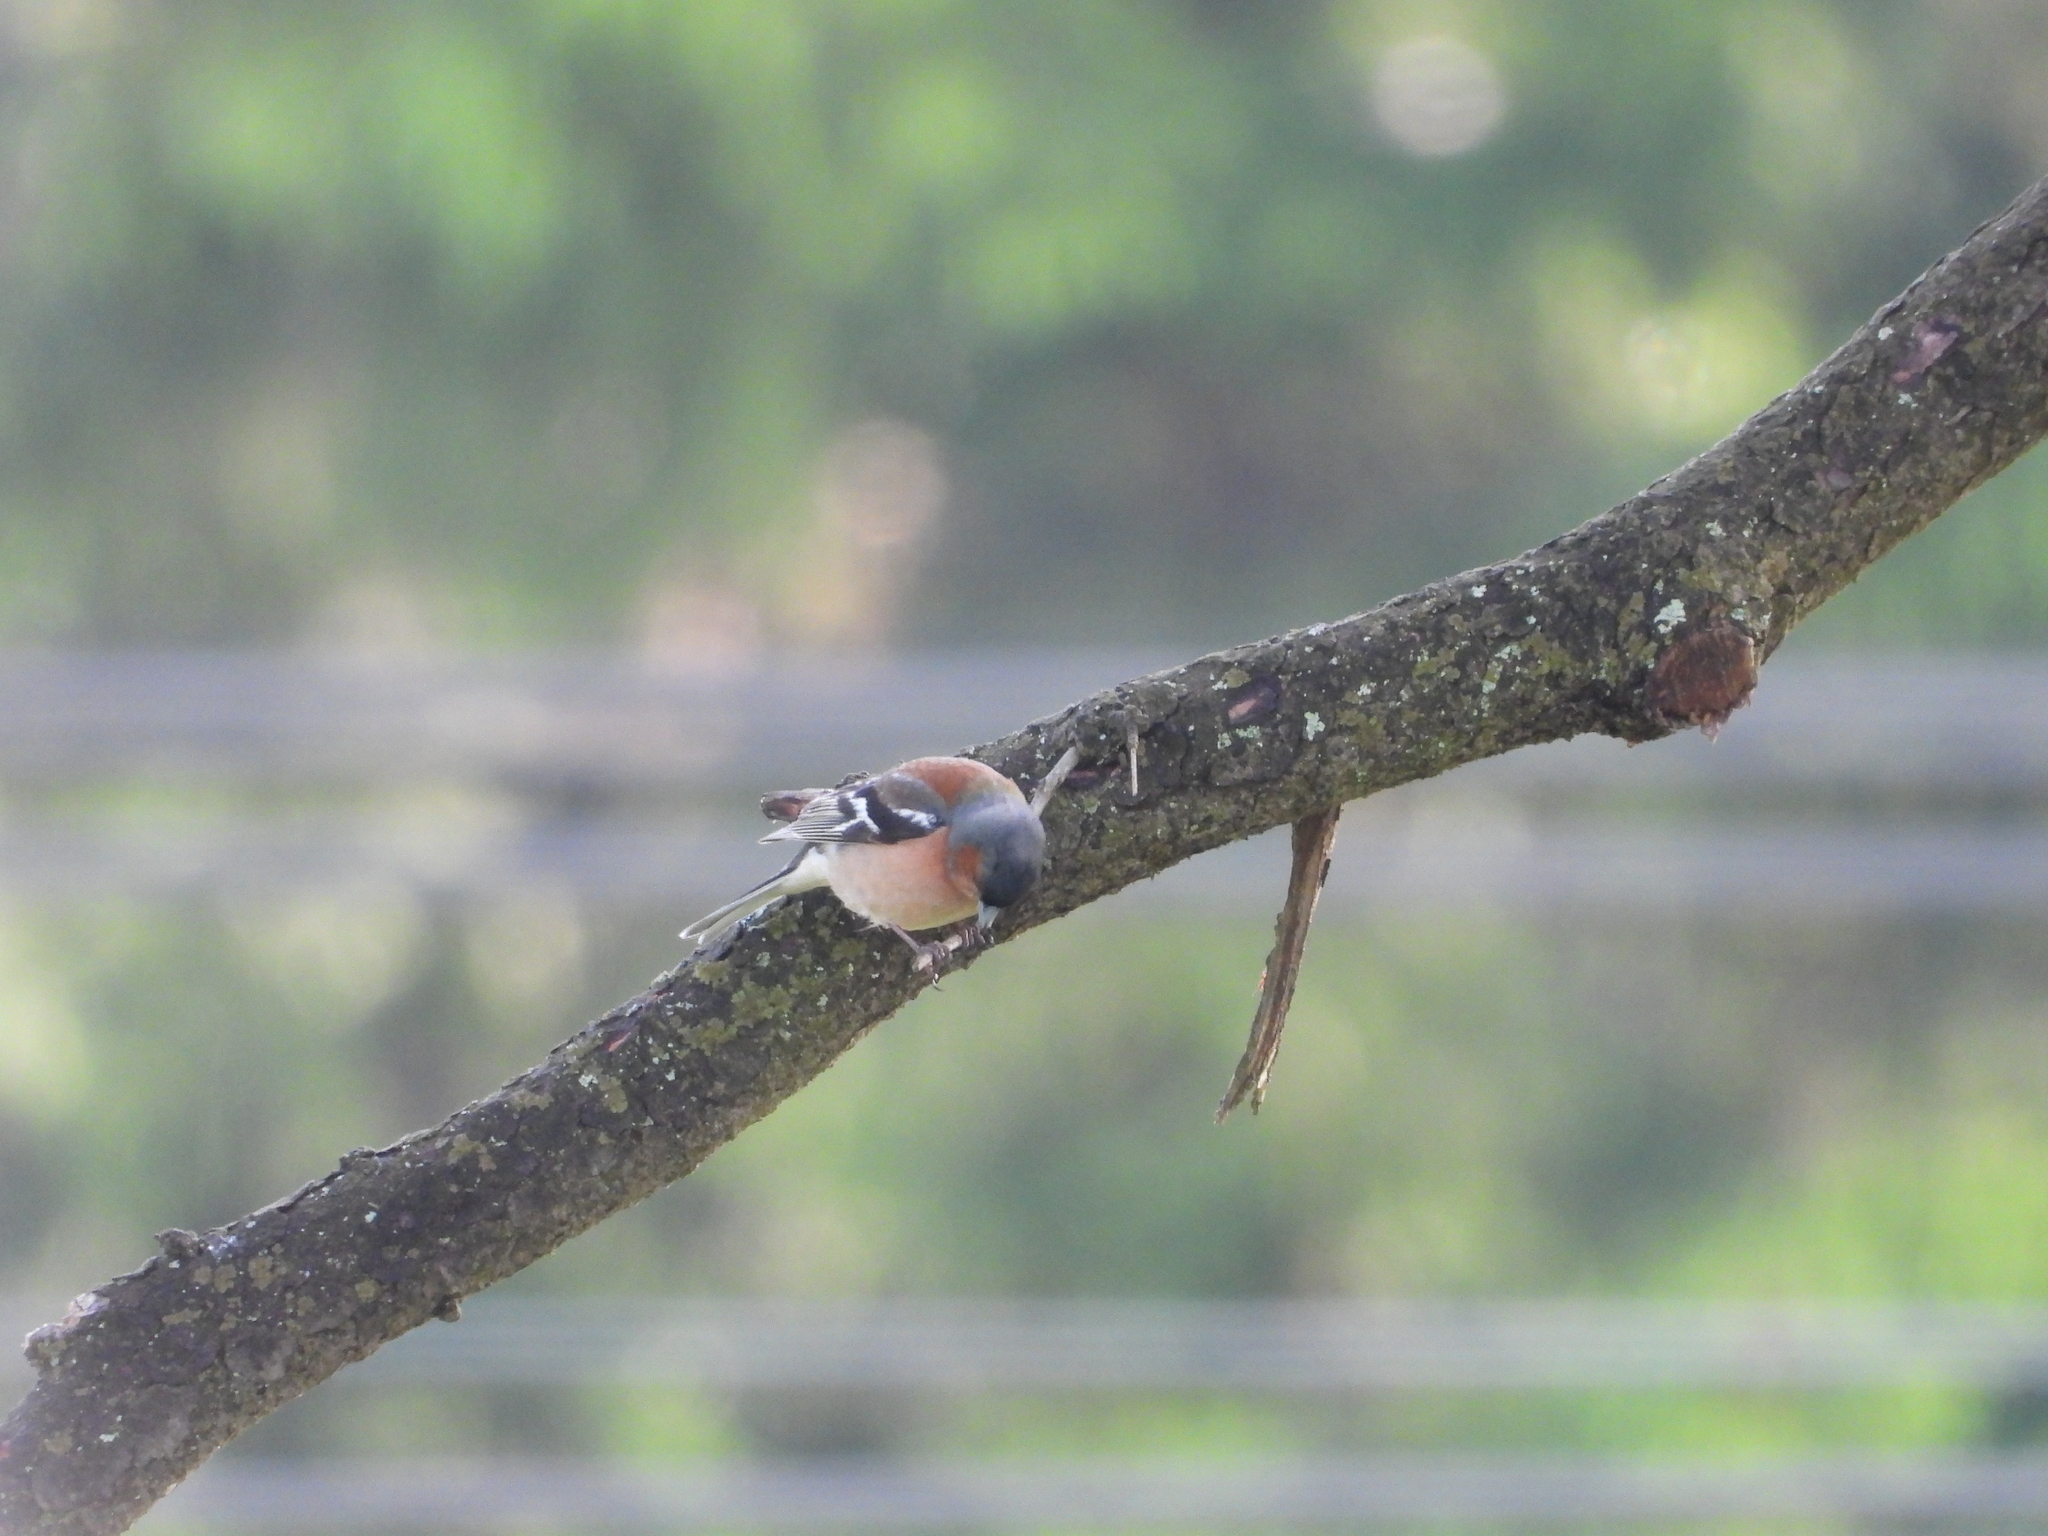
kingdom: Animalia
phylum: Chordata
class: Aves
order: Passeriformes
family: Fringillidae
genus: Fringilla
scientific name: Fringilla coelebs
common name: Common chaffinch
